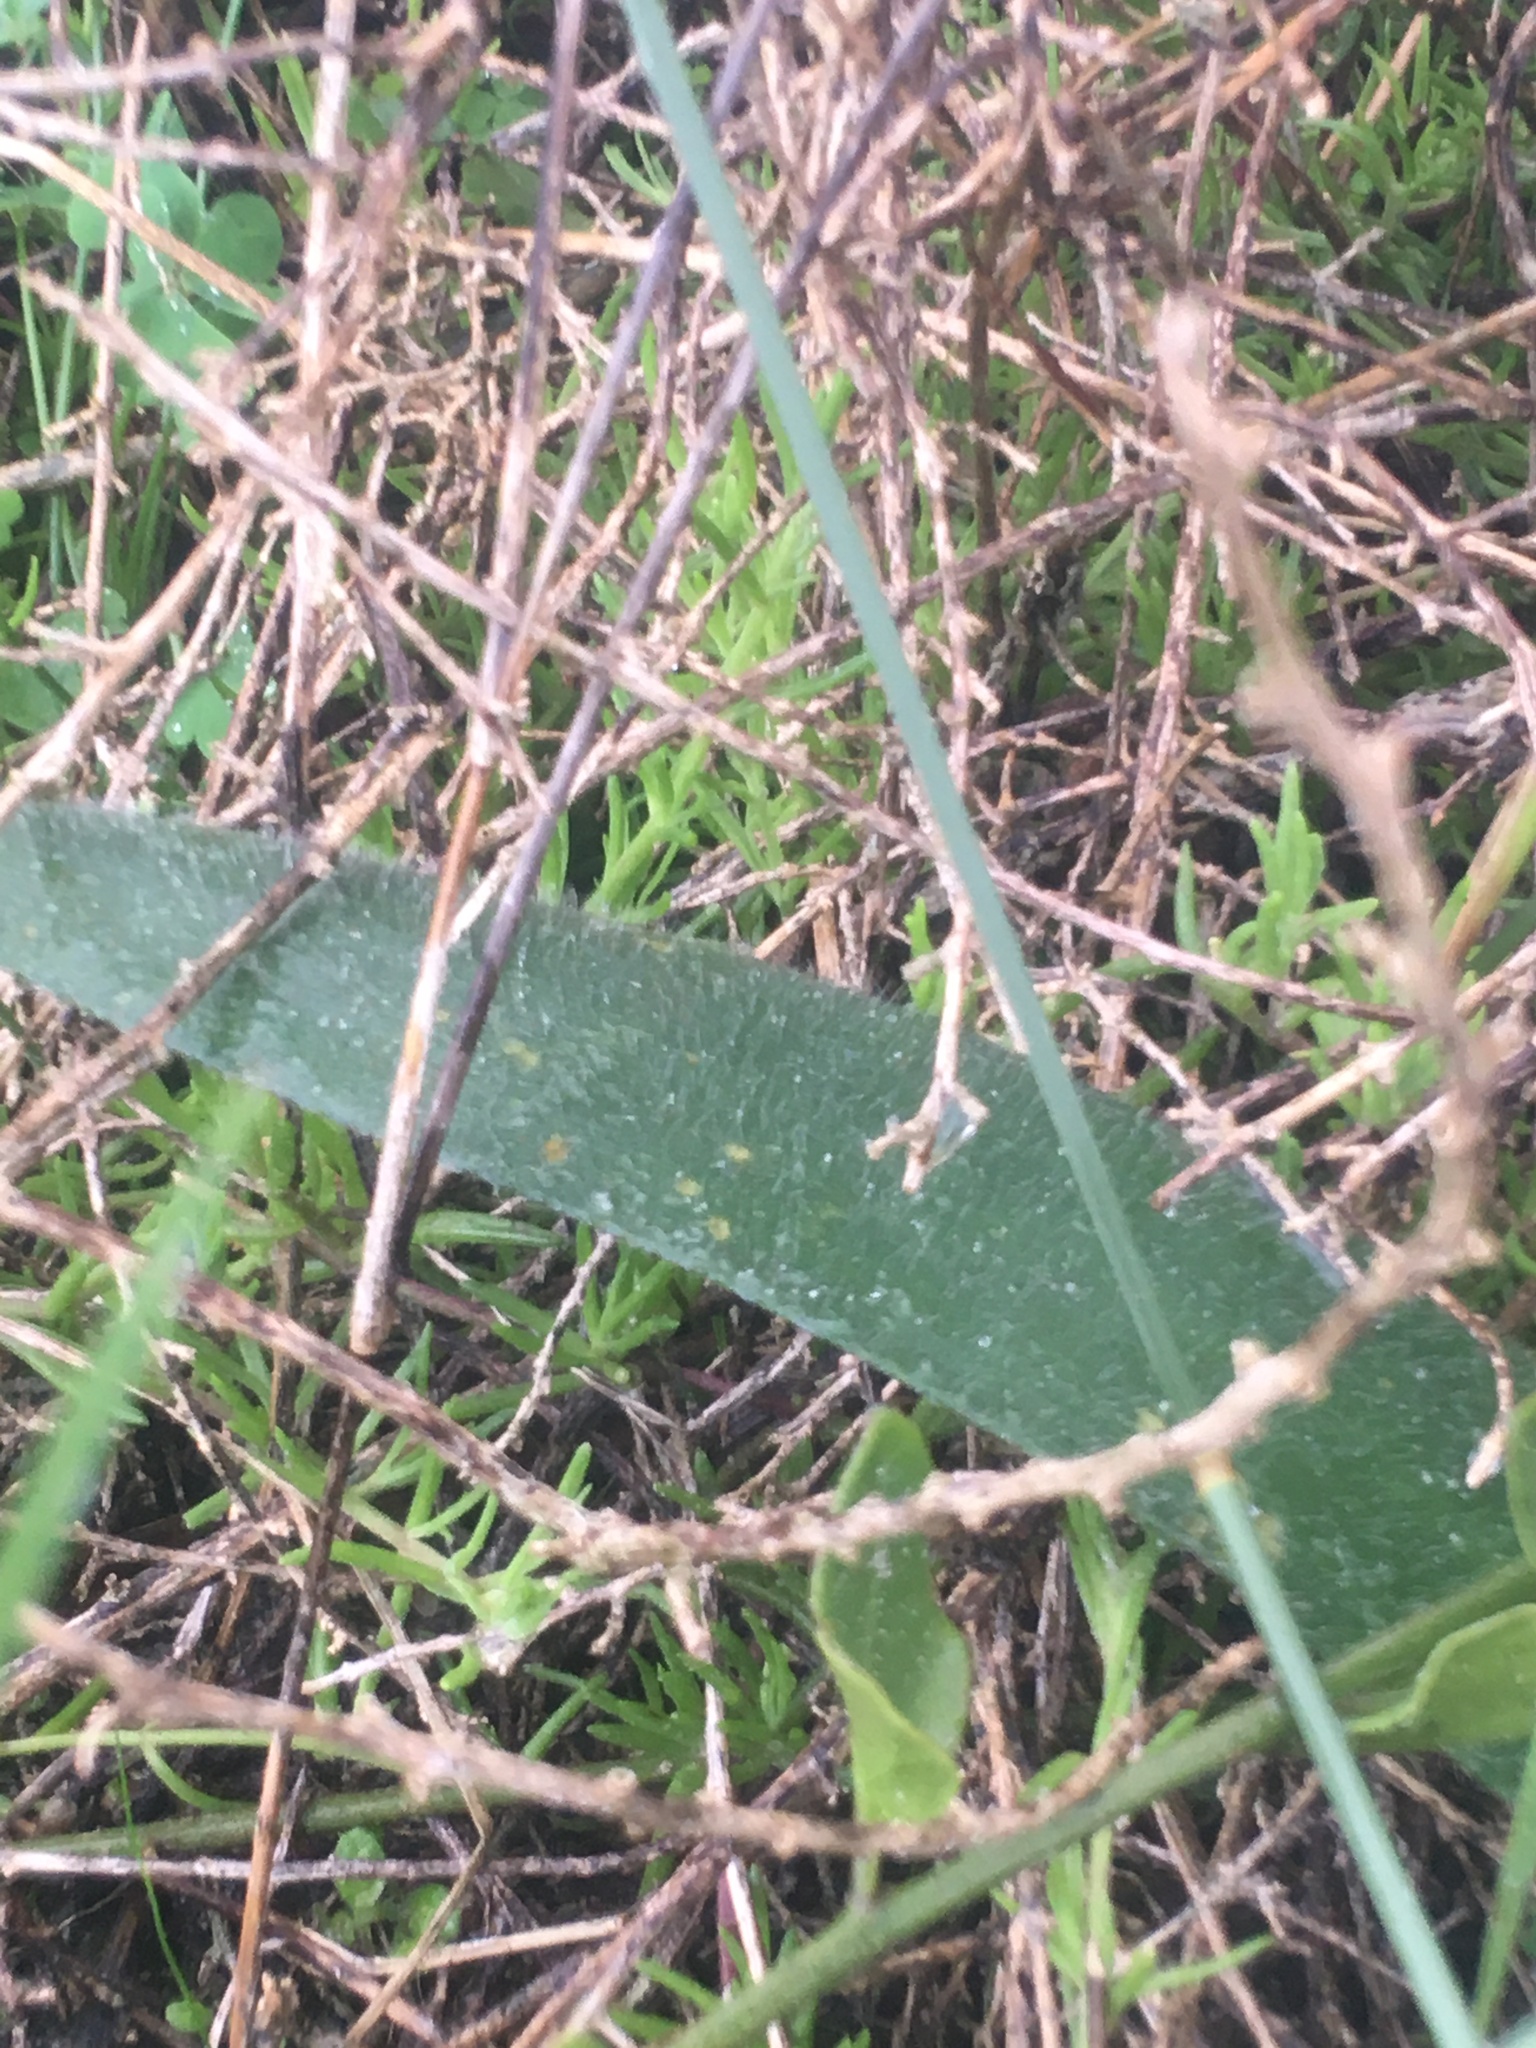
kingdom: Plantae
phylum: Tracheophyta
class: Liliopsida
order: Asparagales
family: Amaryllidaceae
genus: Haemanthus
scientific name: Haemanthus pubescens
